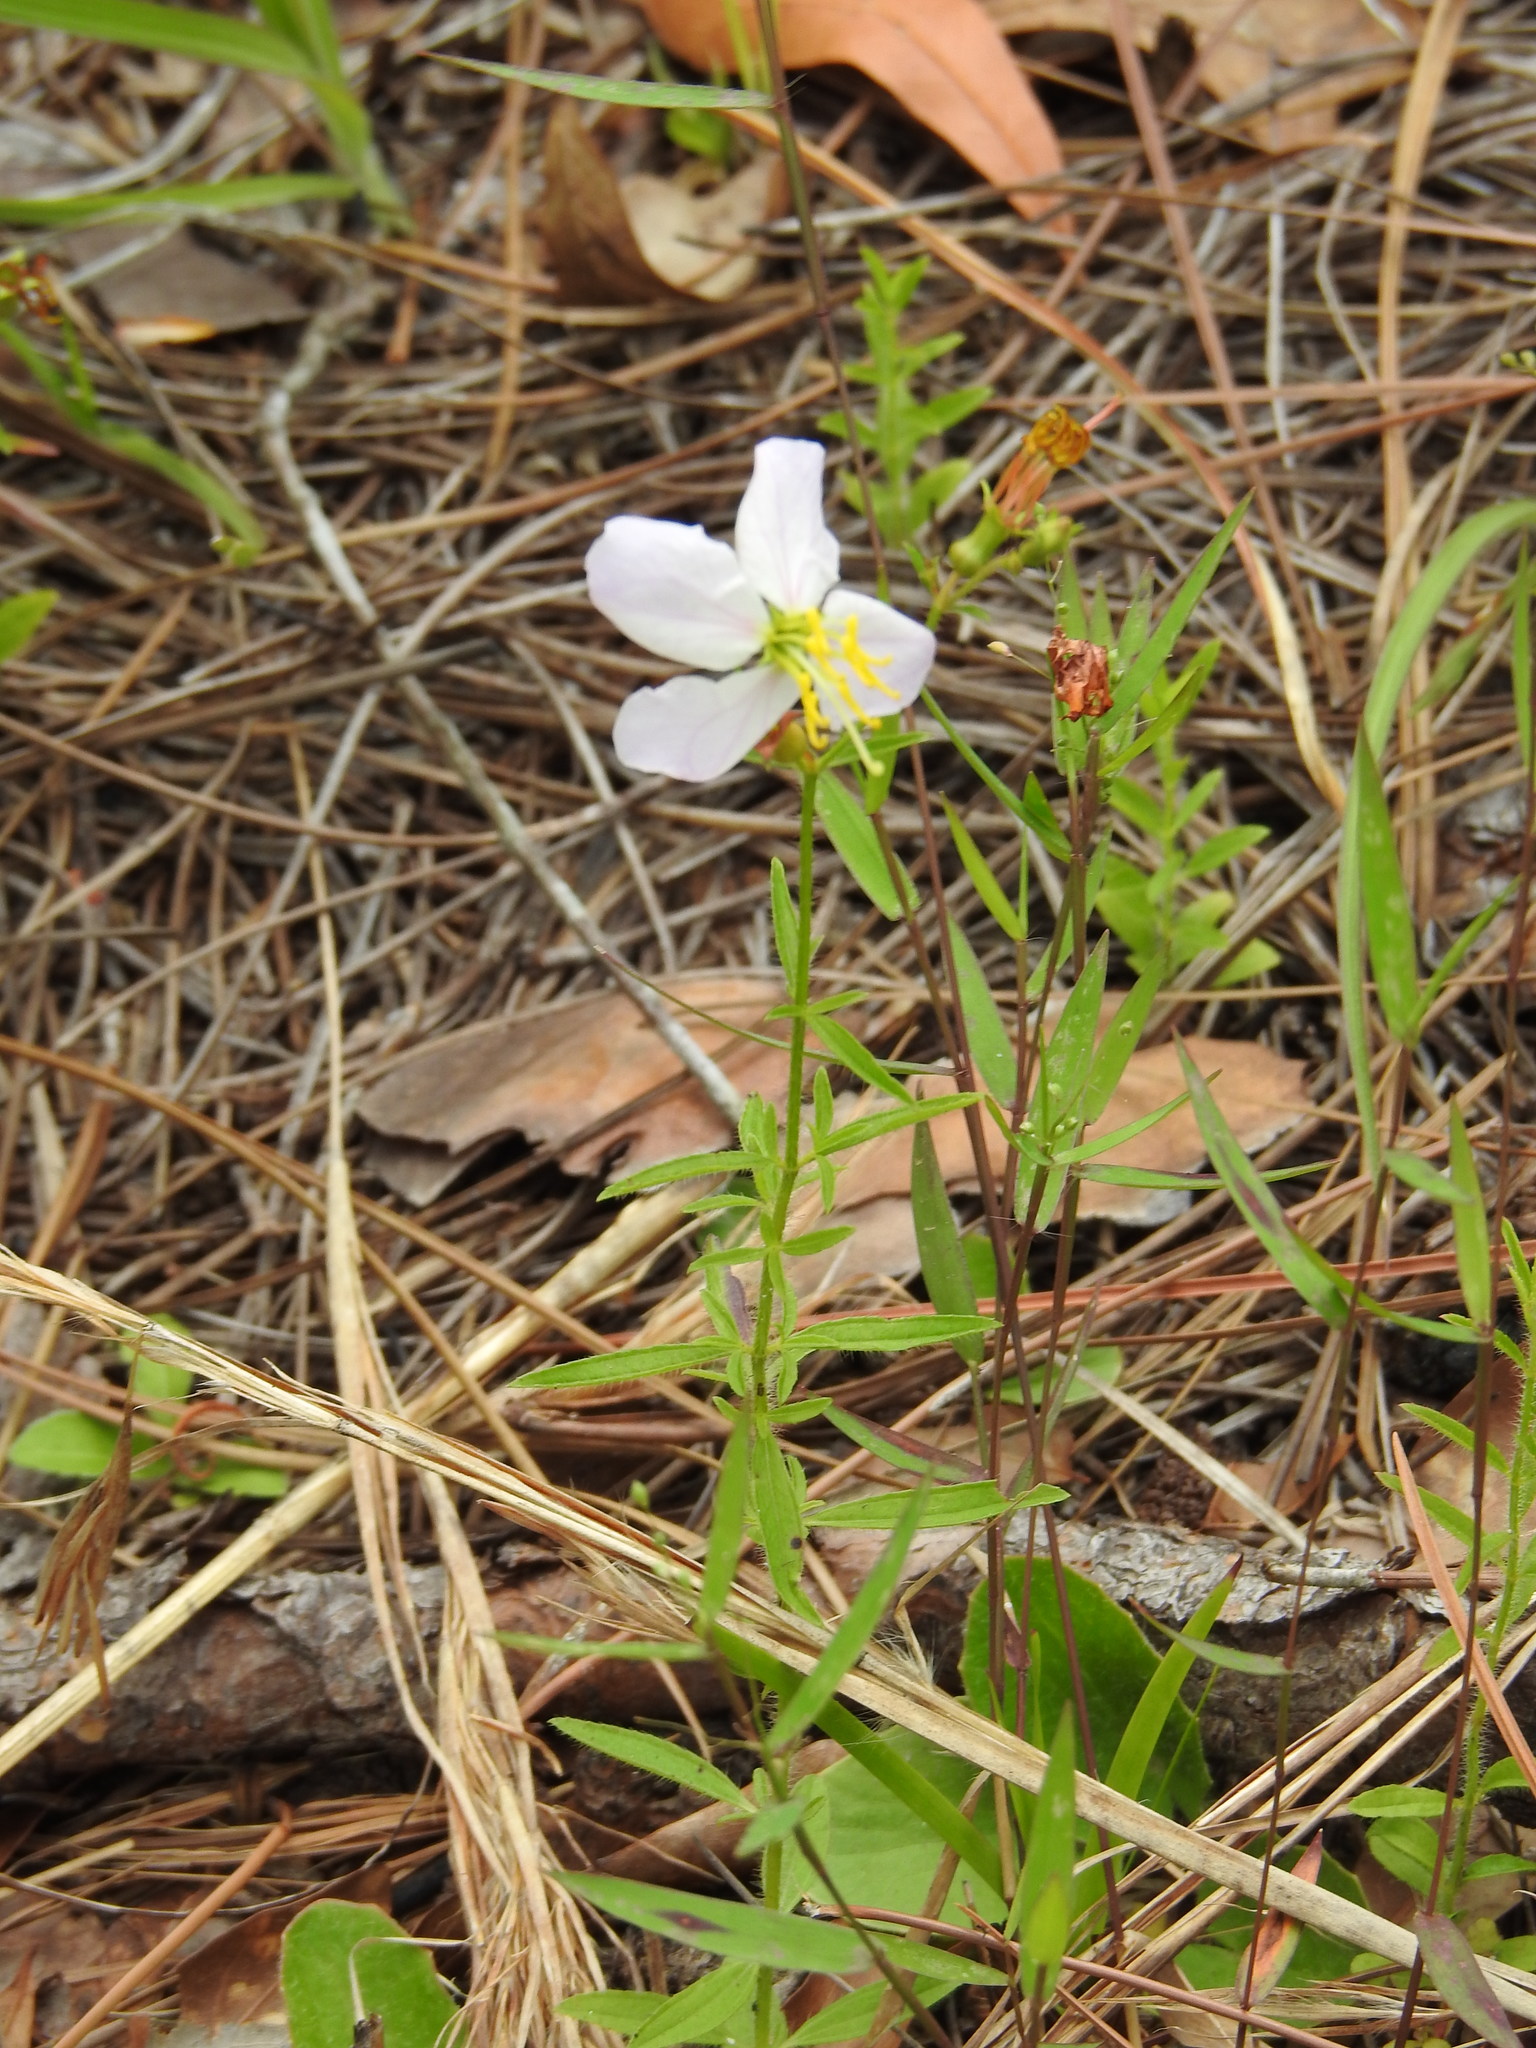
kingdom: Plantae
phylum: Tracheophyta
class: Magnoliopsida
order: Myrtales
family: Melastomataceae
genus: Rhexia
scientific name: Rhexia mariana
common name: Dull meadow-pitcher
